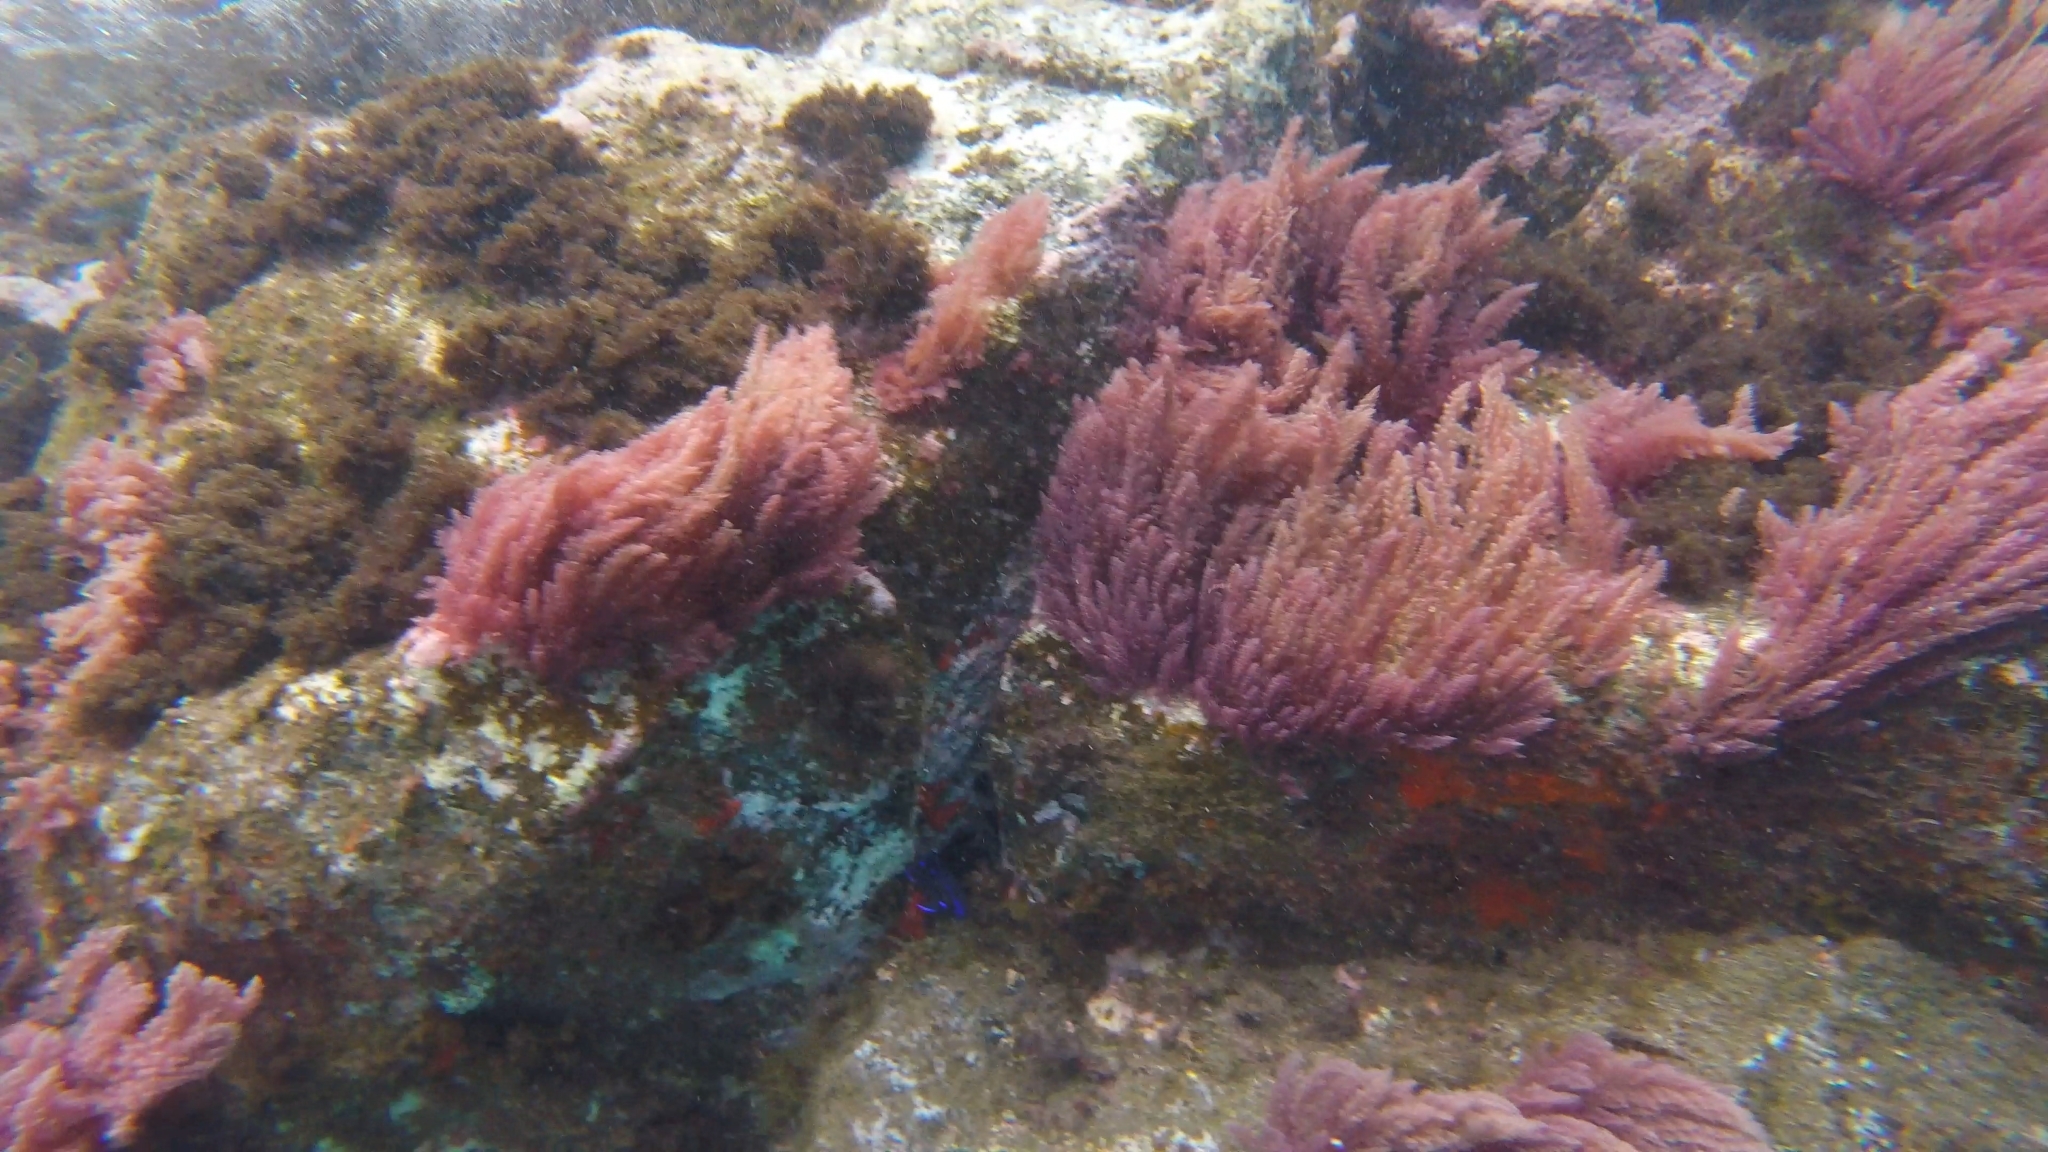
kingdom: Plantae
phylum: Rhodophyta
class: Florideophyceae
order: Bonnemaisoniales
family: Bonnemaisoniaceae
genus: Asparagopsis
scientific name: Asparagopsis taxiformis
